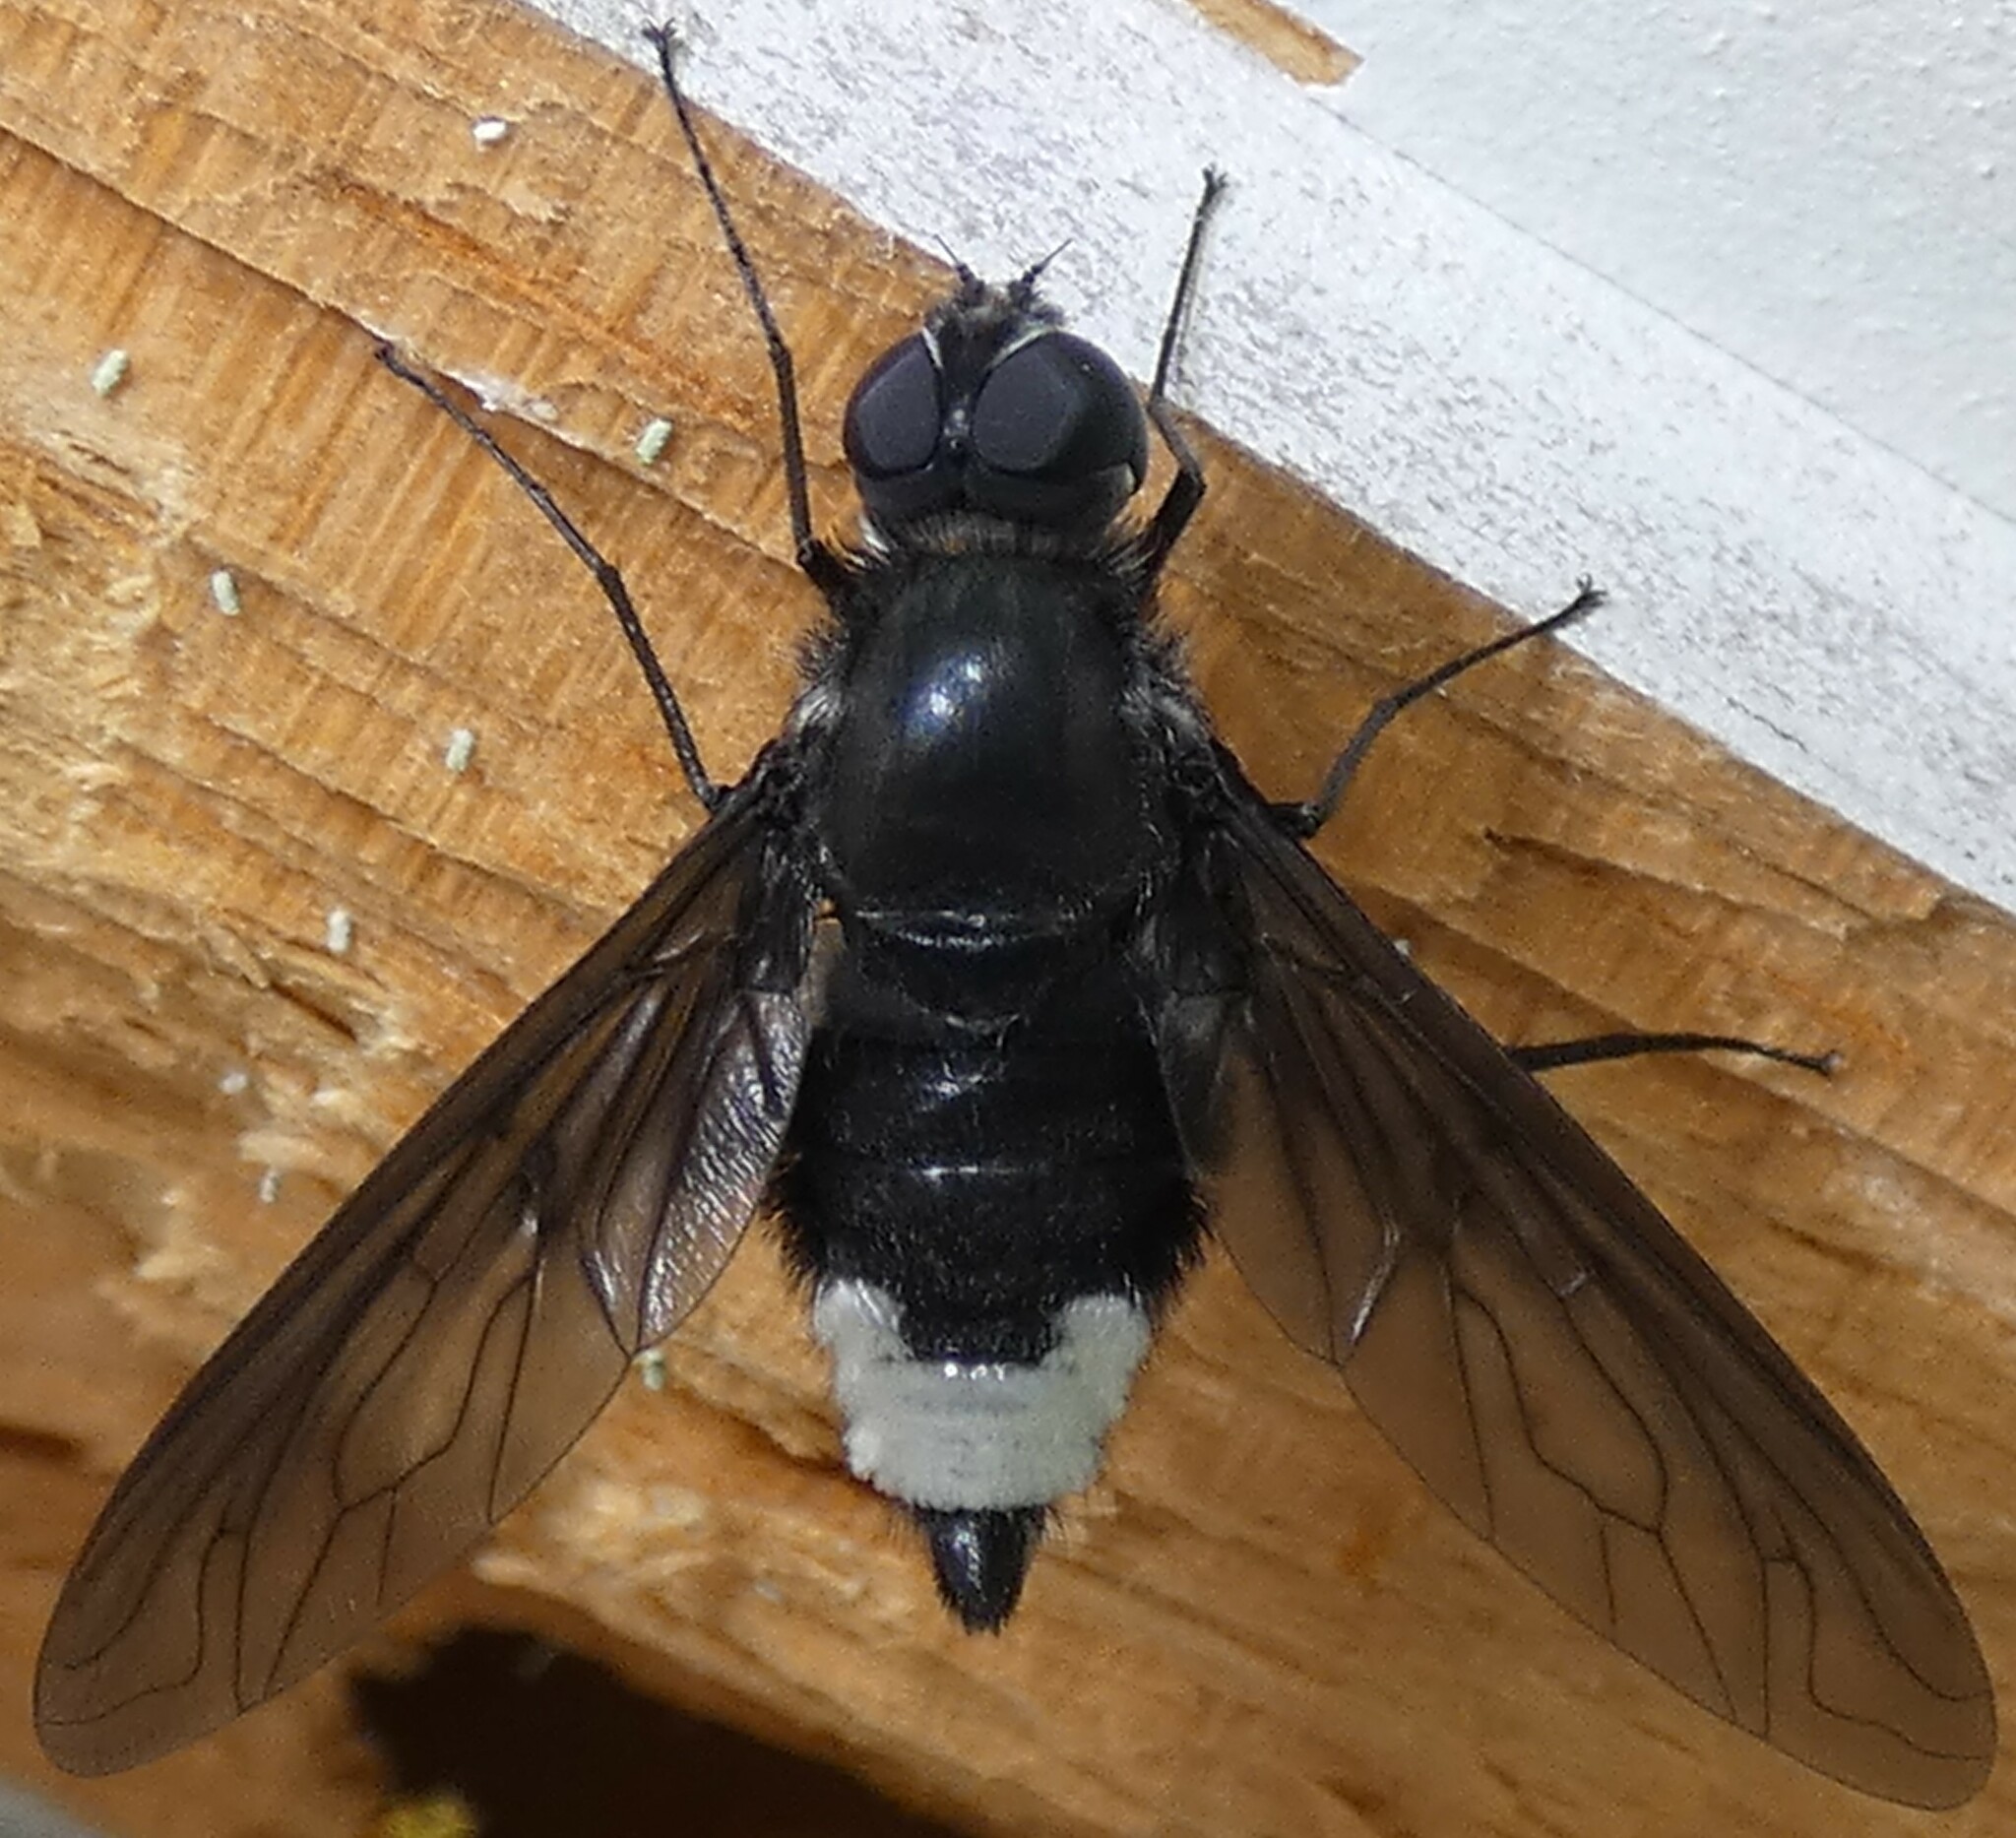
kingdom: Animalia
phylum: Arthropoda
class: Insecta
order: Diptera
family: Bombyliidae
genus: Brachyanax
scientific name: Brachyanax aterrimus
